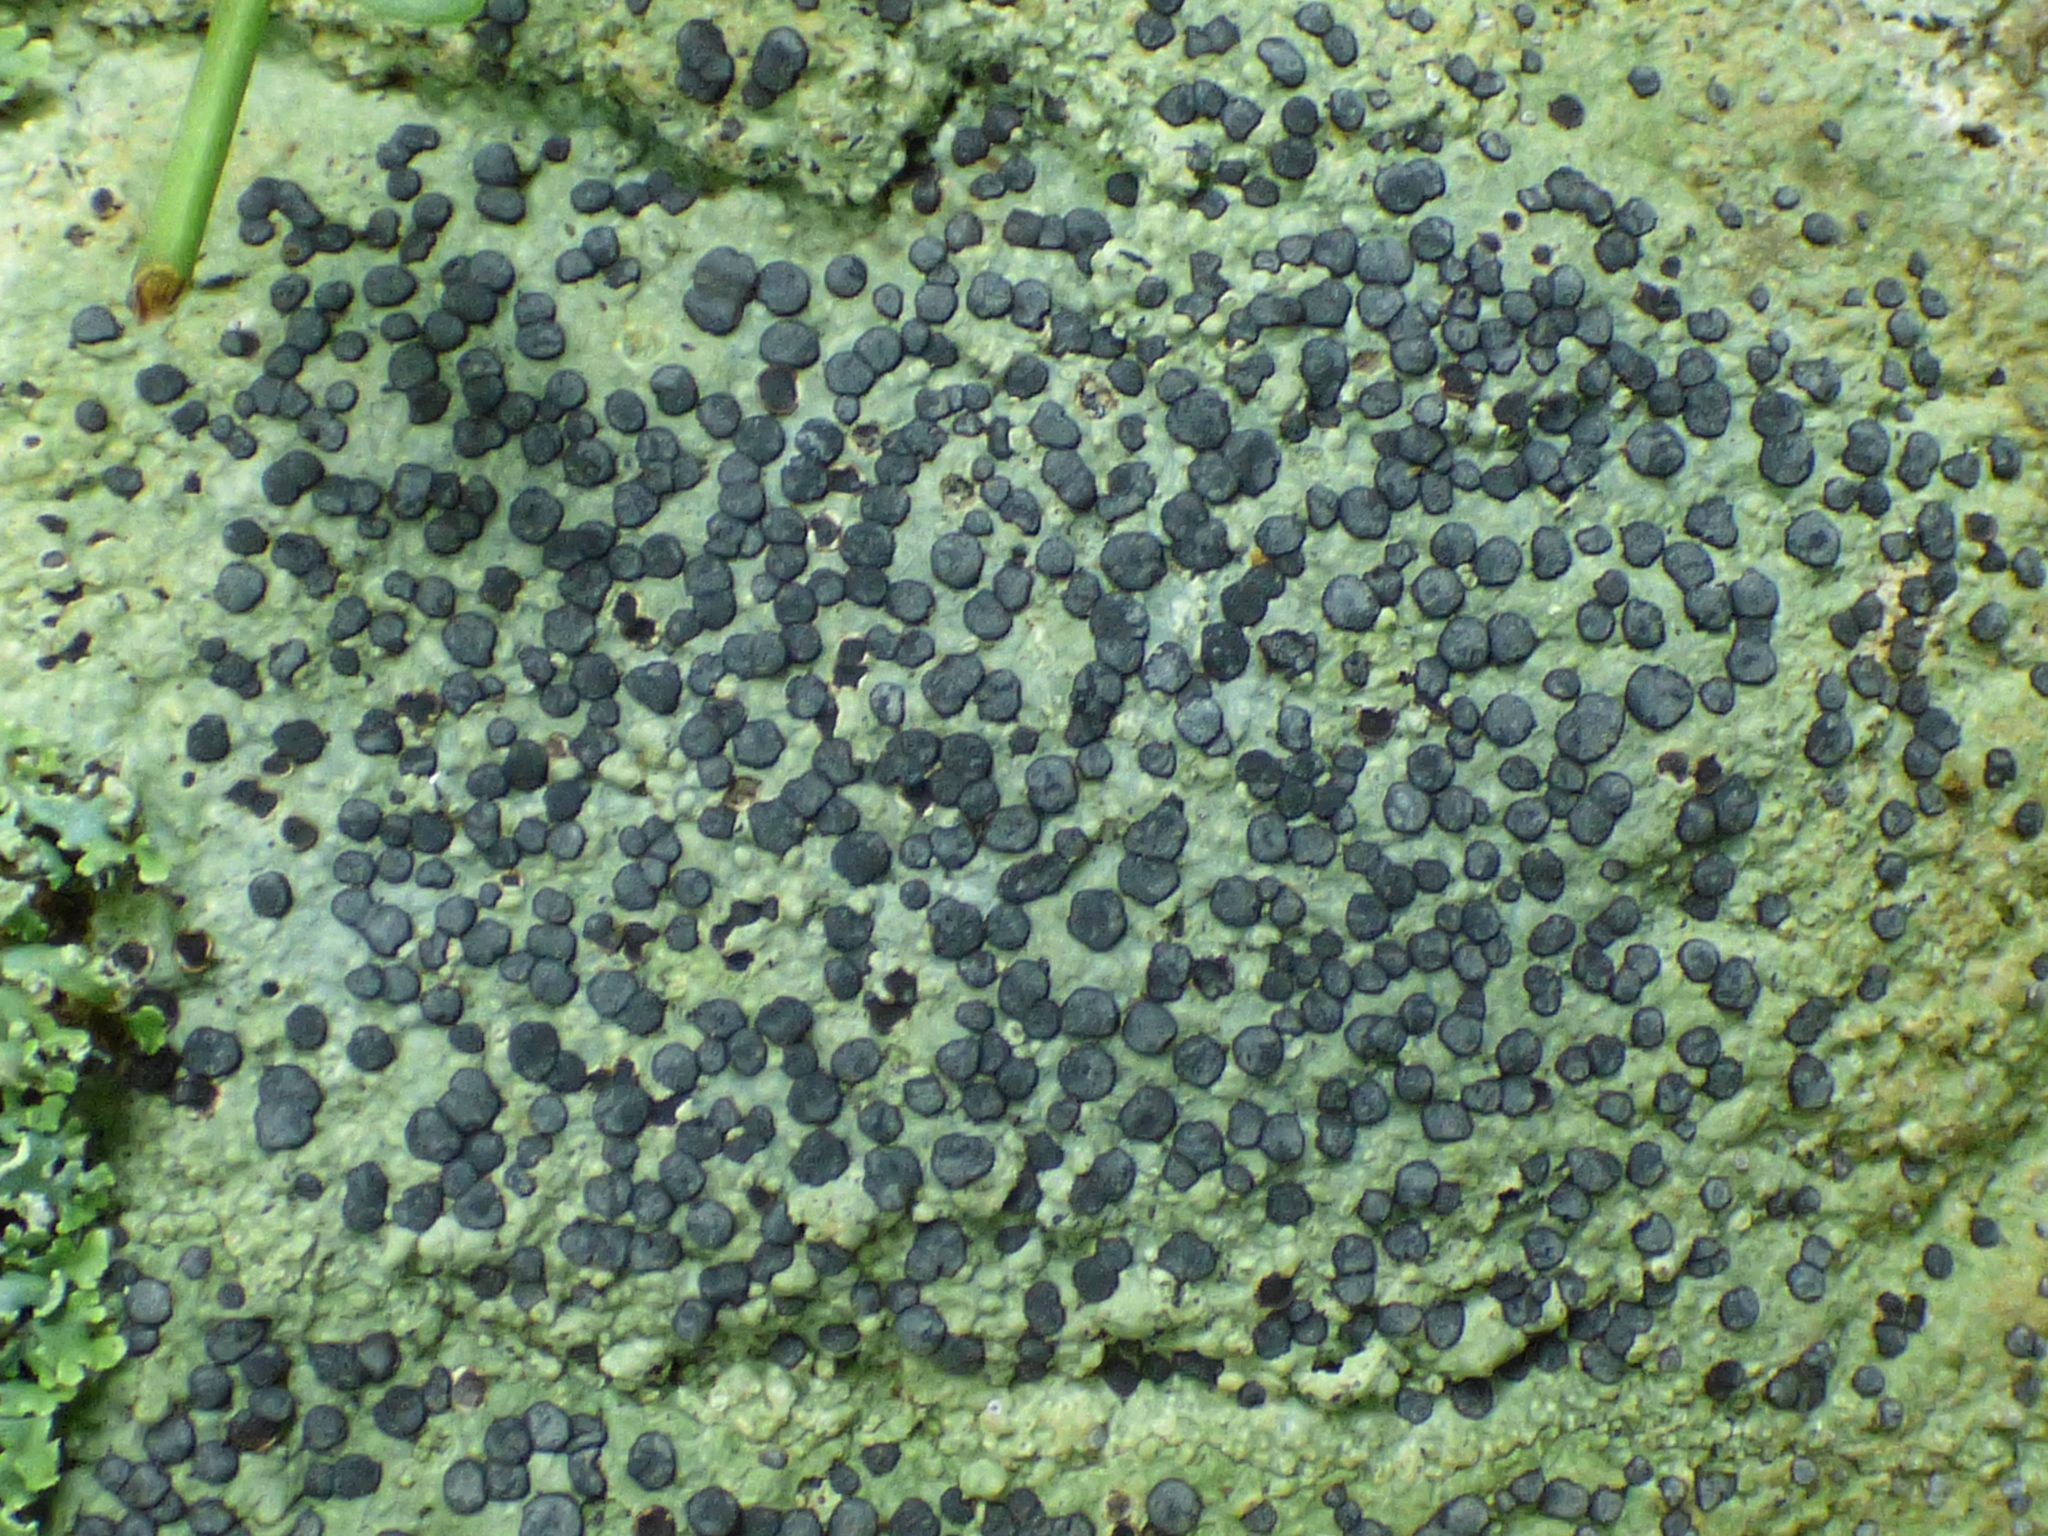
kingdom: Fungi
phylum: Ascomycota
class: Lecanoromycetes
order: Lecideales
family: Lecideaceae
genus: Porpidia
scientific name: Porpidia albocaerulescens
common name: Smokey-eyed boulder lichen
